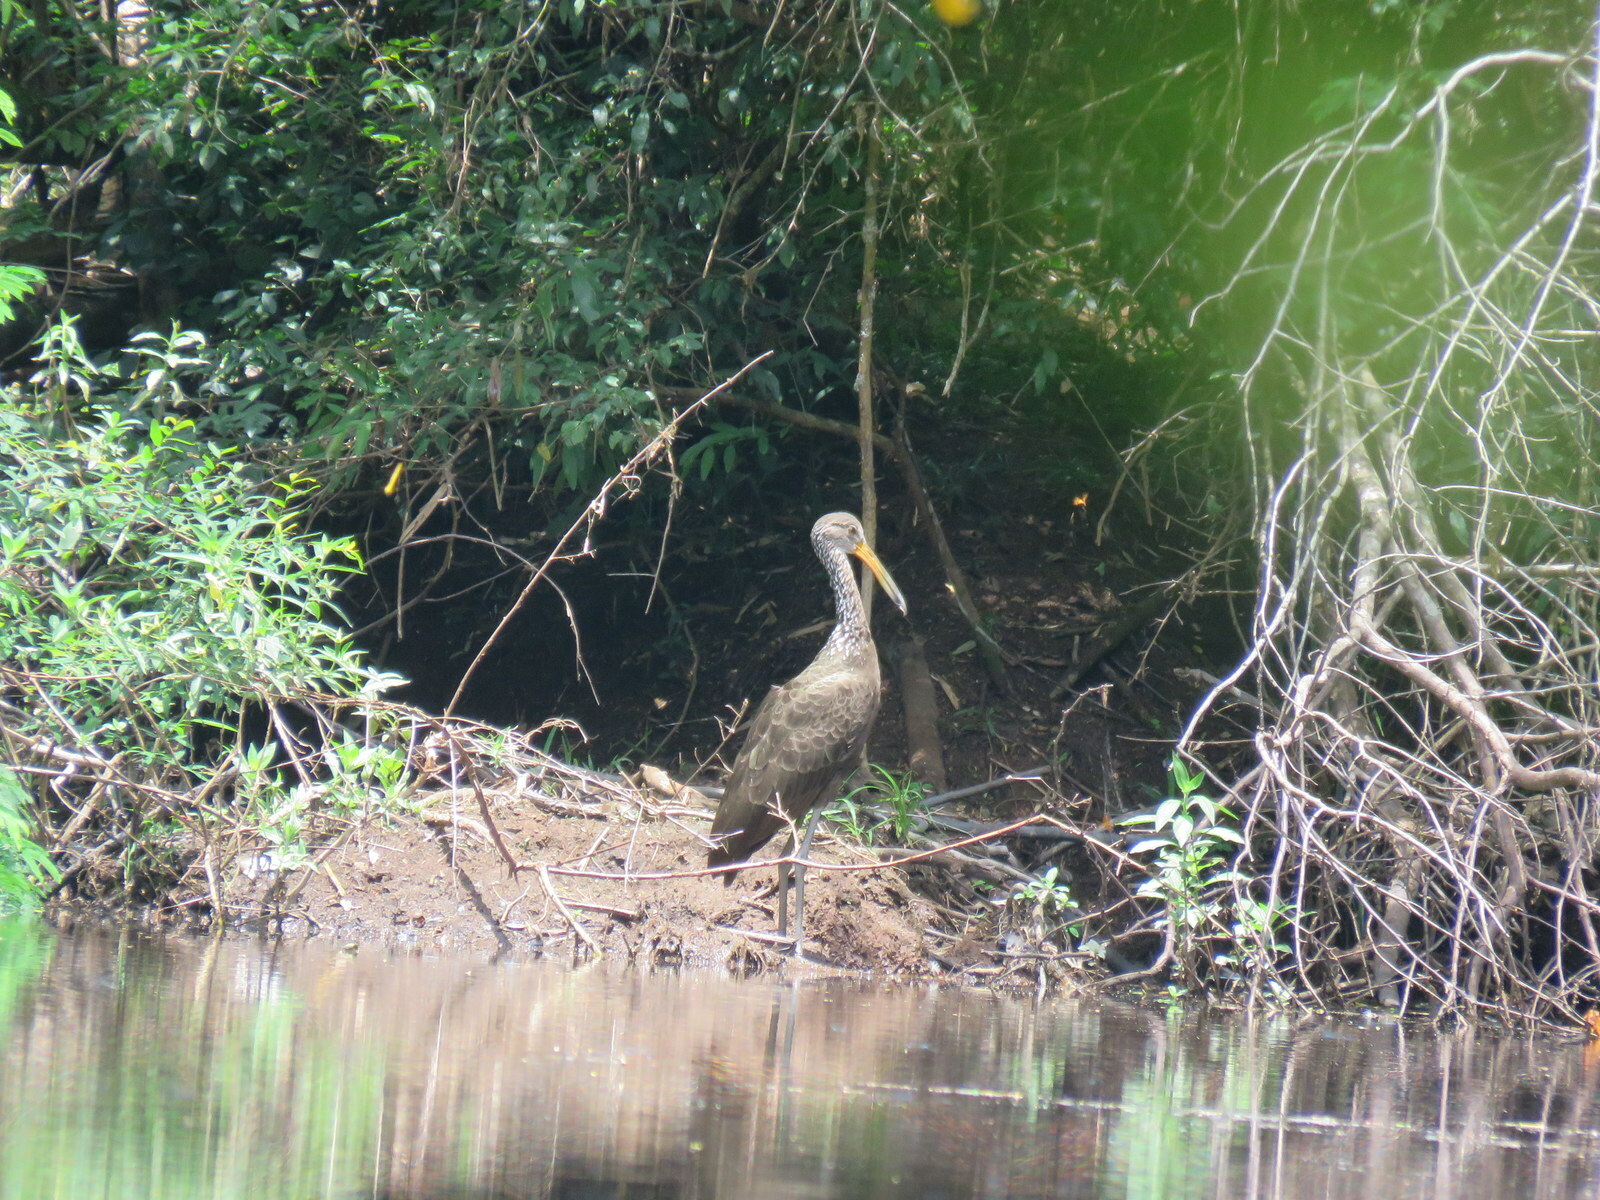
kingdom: Animalia
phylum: Chordata
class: Aves
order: Gruiformes
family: Aramidae
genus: Aramus
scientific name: Aramus guarauna
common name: Limpkin
